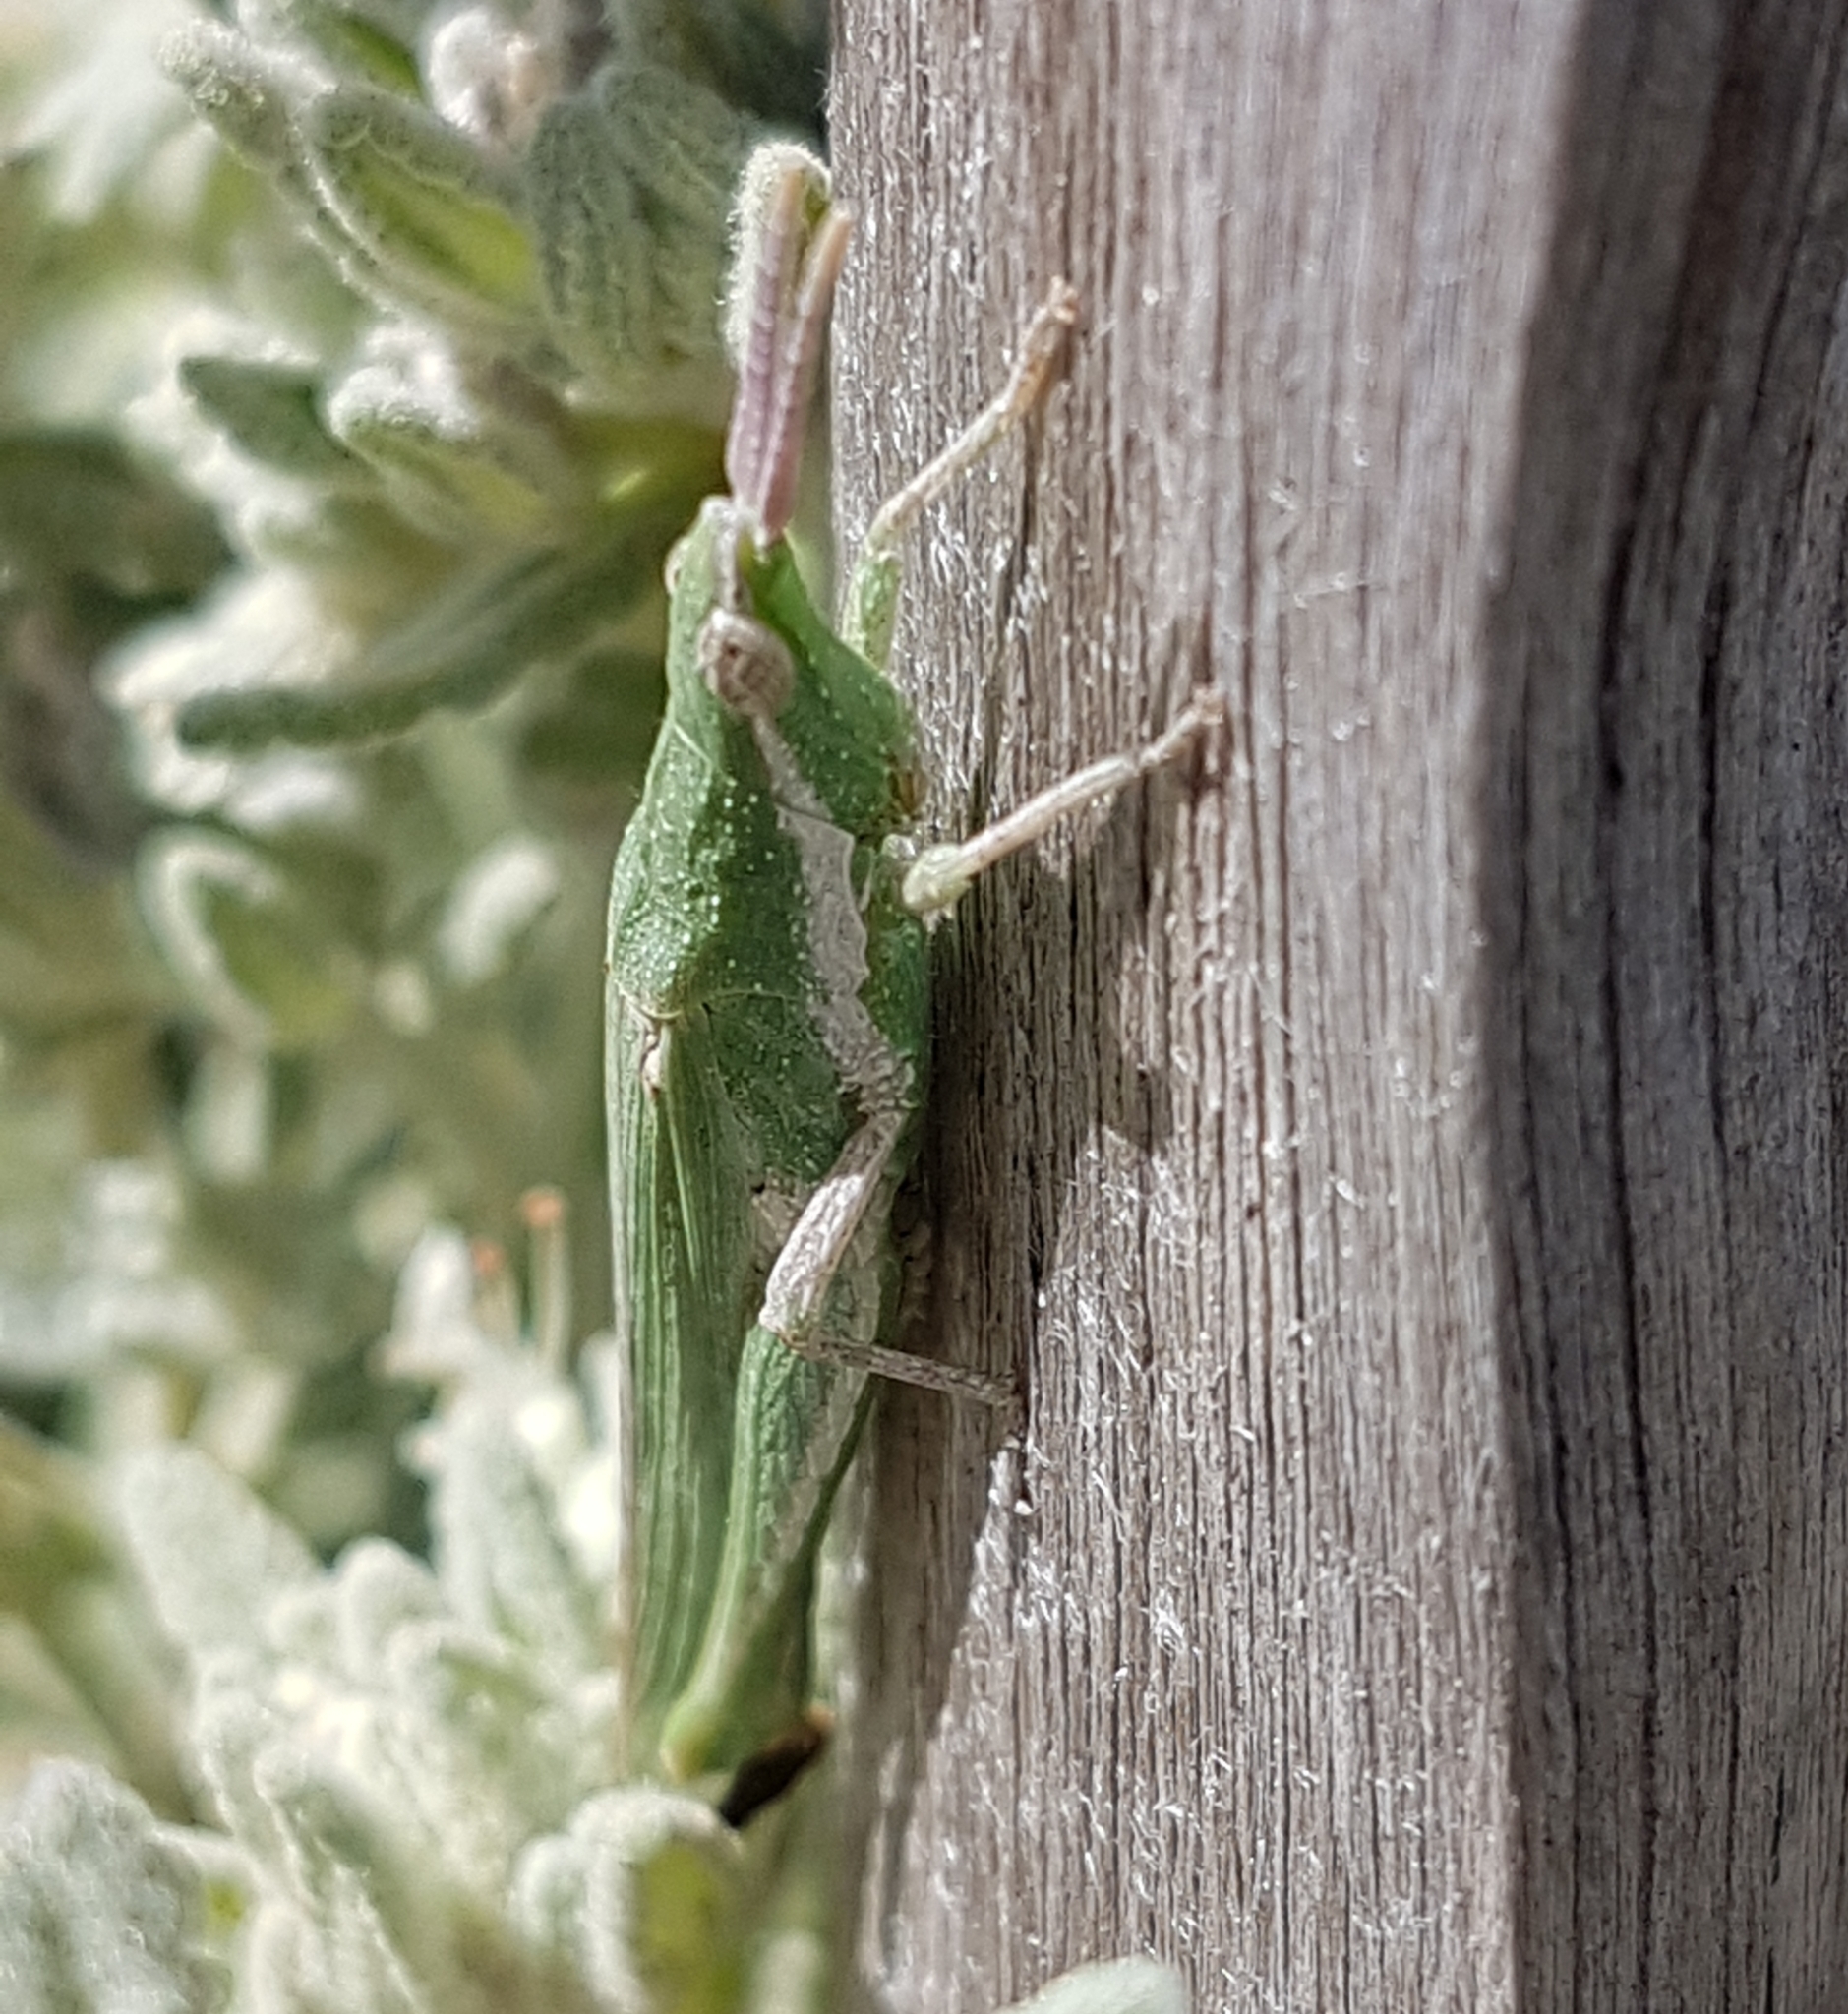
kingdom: Animalia
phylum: Arthropoda
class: Insecta
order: Orthoptera
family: Pyrgomorphidae
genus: Pyrgomorpha
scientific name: Pyrgomorpha conica
